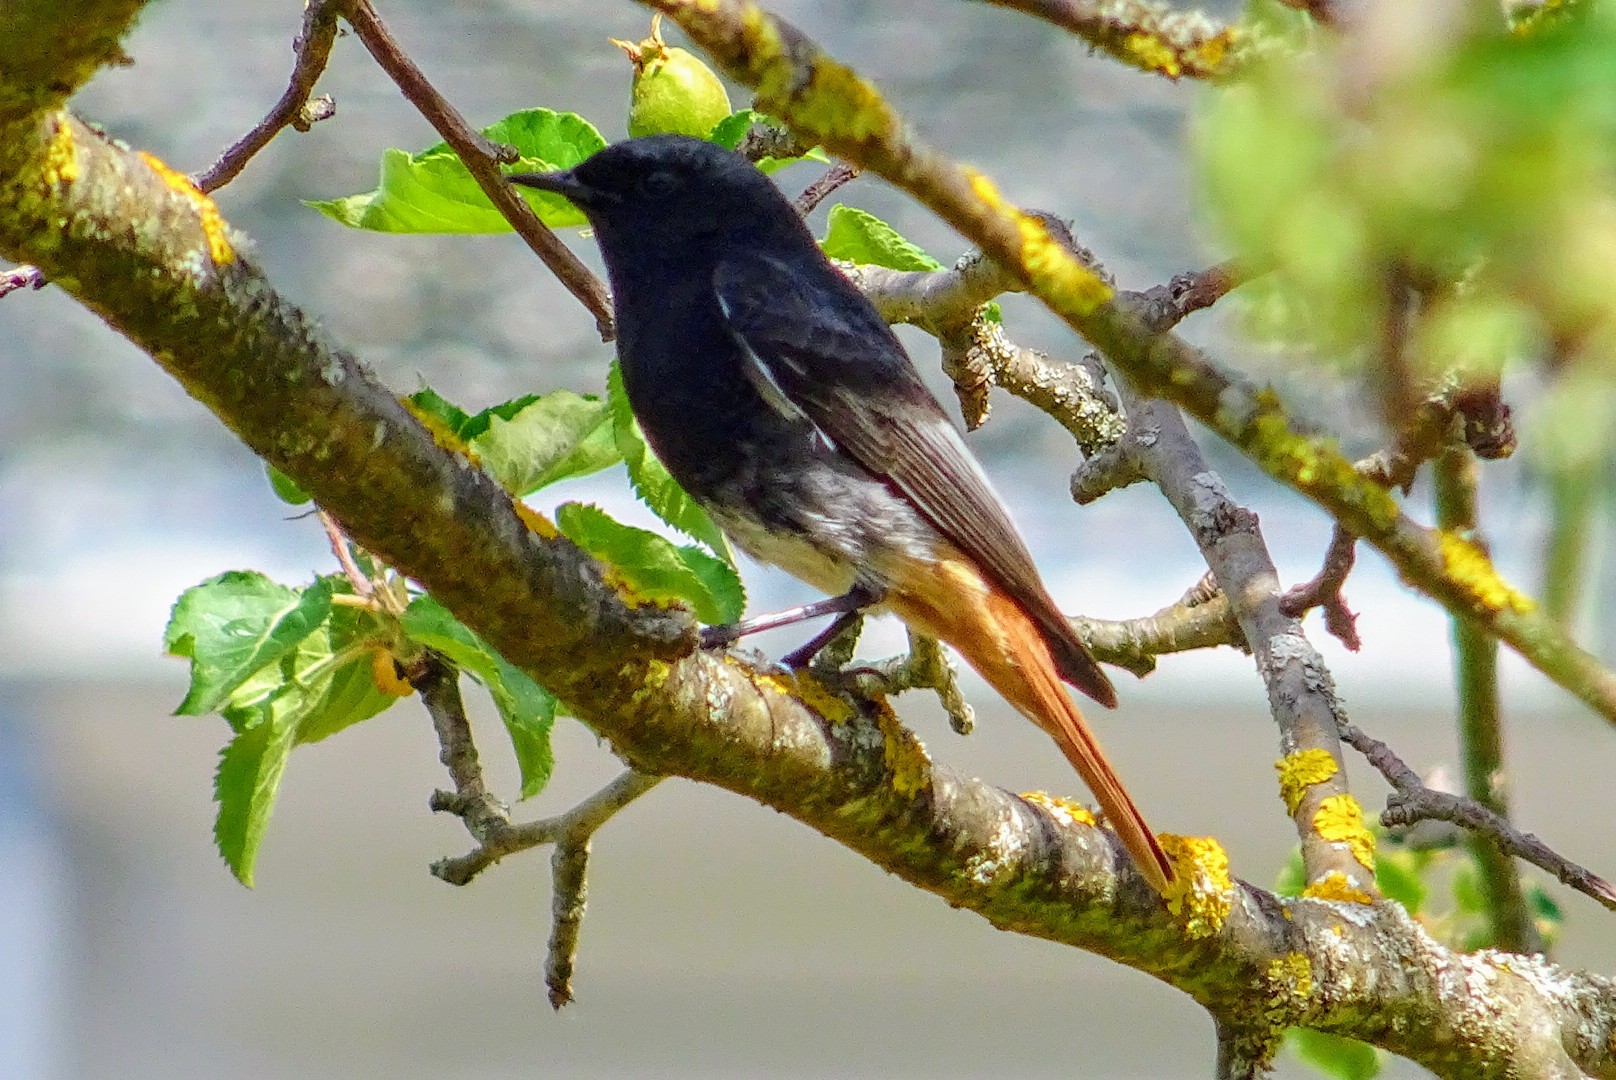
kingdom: Animalia
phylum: Chordata
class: Aves
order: Passeriformes
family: Muscicapidae
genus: Phoenicurus
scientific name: Phoenicurus ochruros
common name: Black redstart
